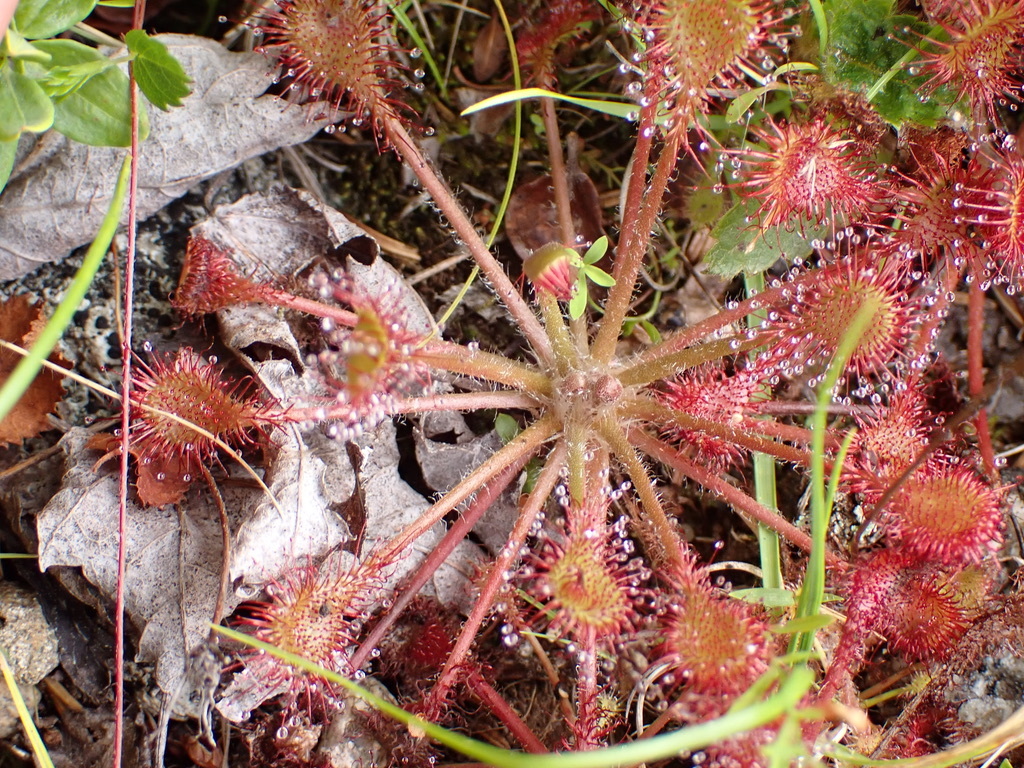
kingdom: Plantae
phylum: Tracheophyta
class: Magnoliopsida
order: Caryophyllales
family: Droseraceae
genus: Drosera
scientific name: Drosera rotundifolia
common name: Round-leaved sundew
